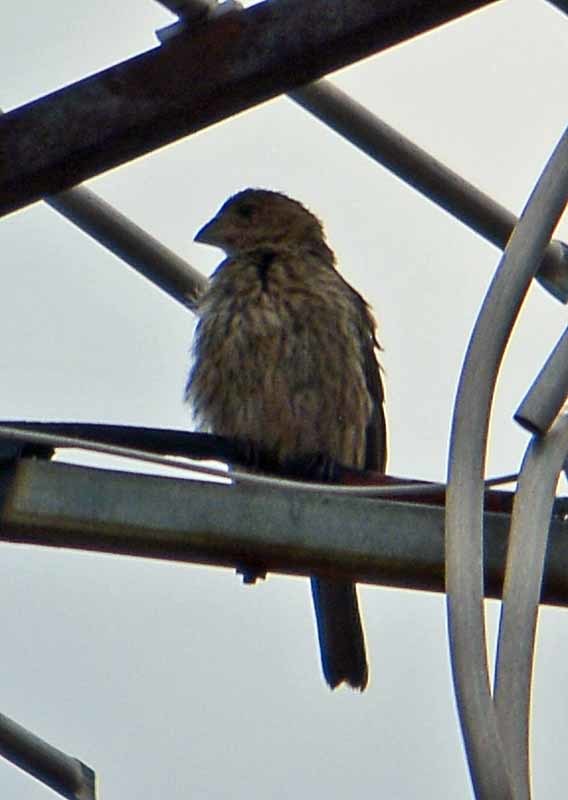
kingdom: Animalia
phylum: Chordata
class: Aves
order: Passeriformes
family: Fringillidae
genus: Haemorhous
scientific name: Haemorhous mexicanus
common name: House finch
